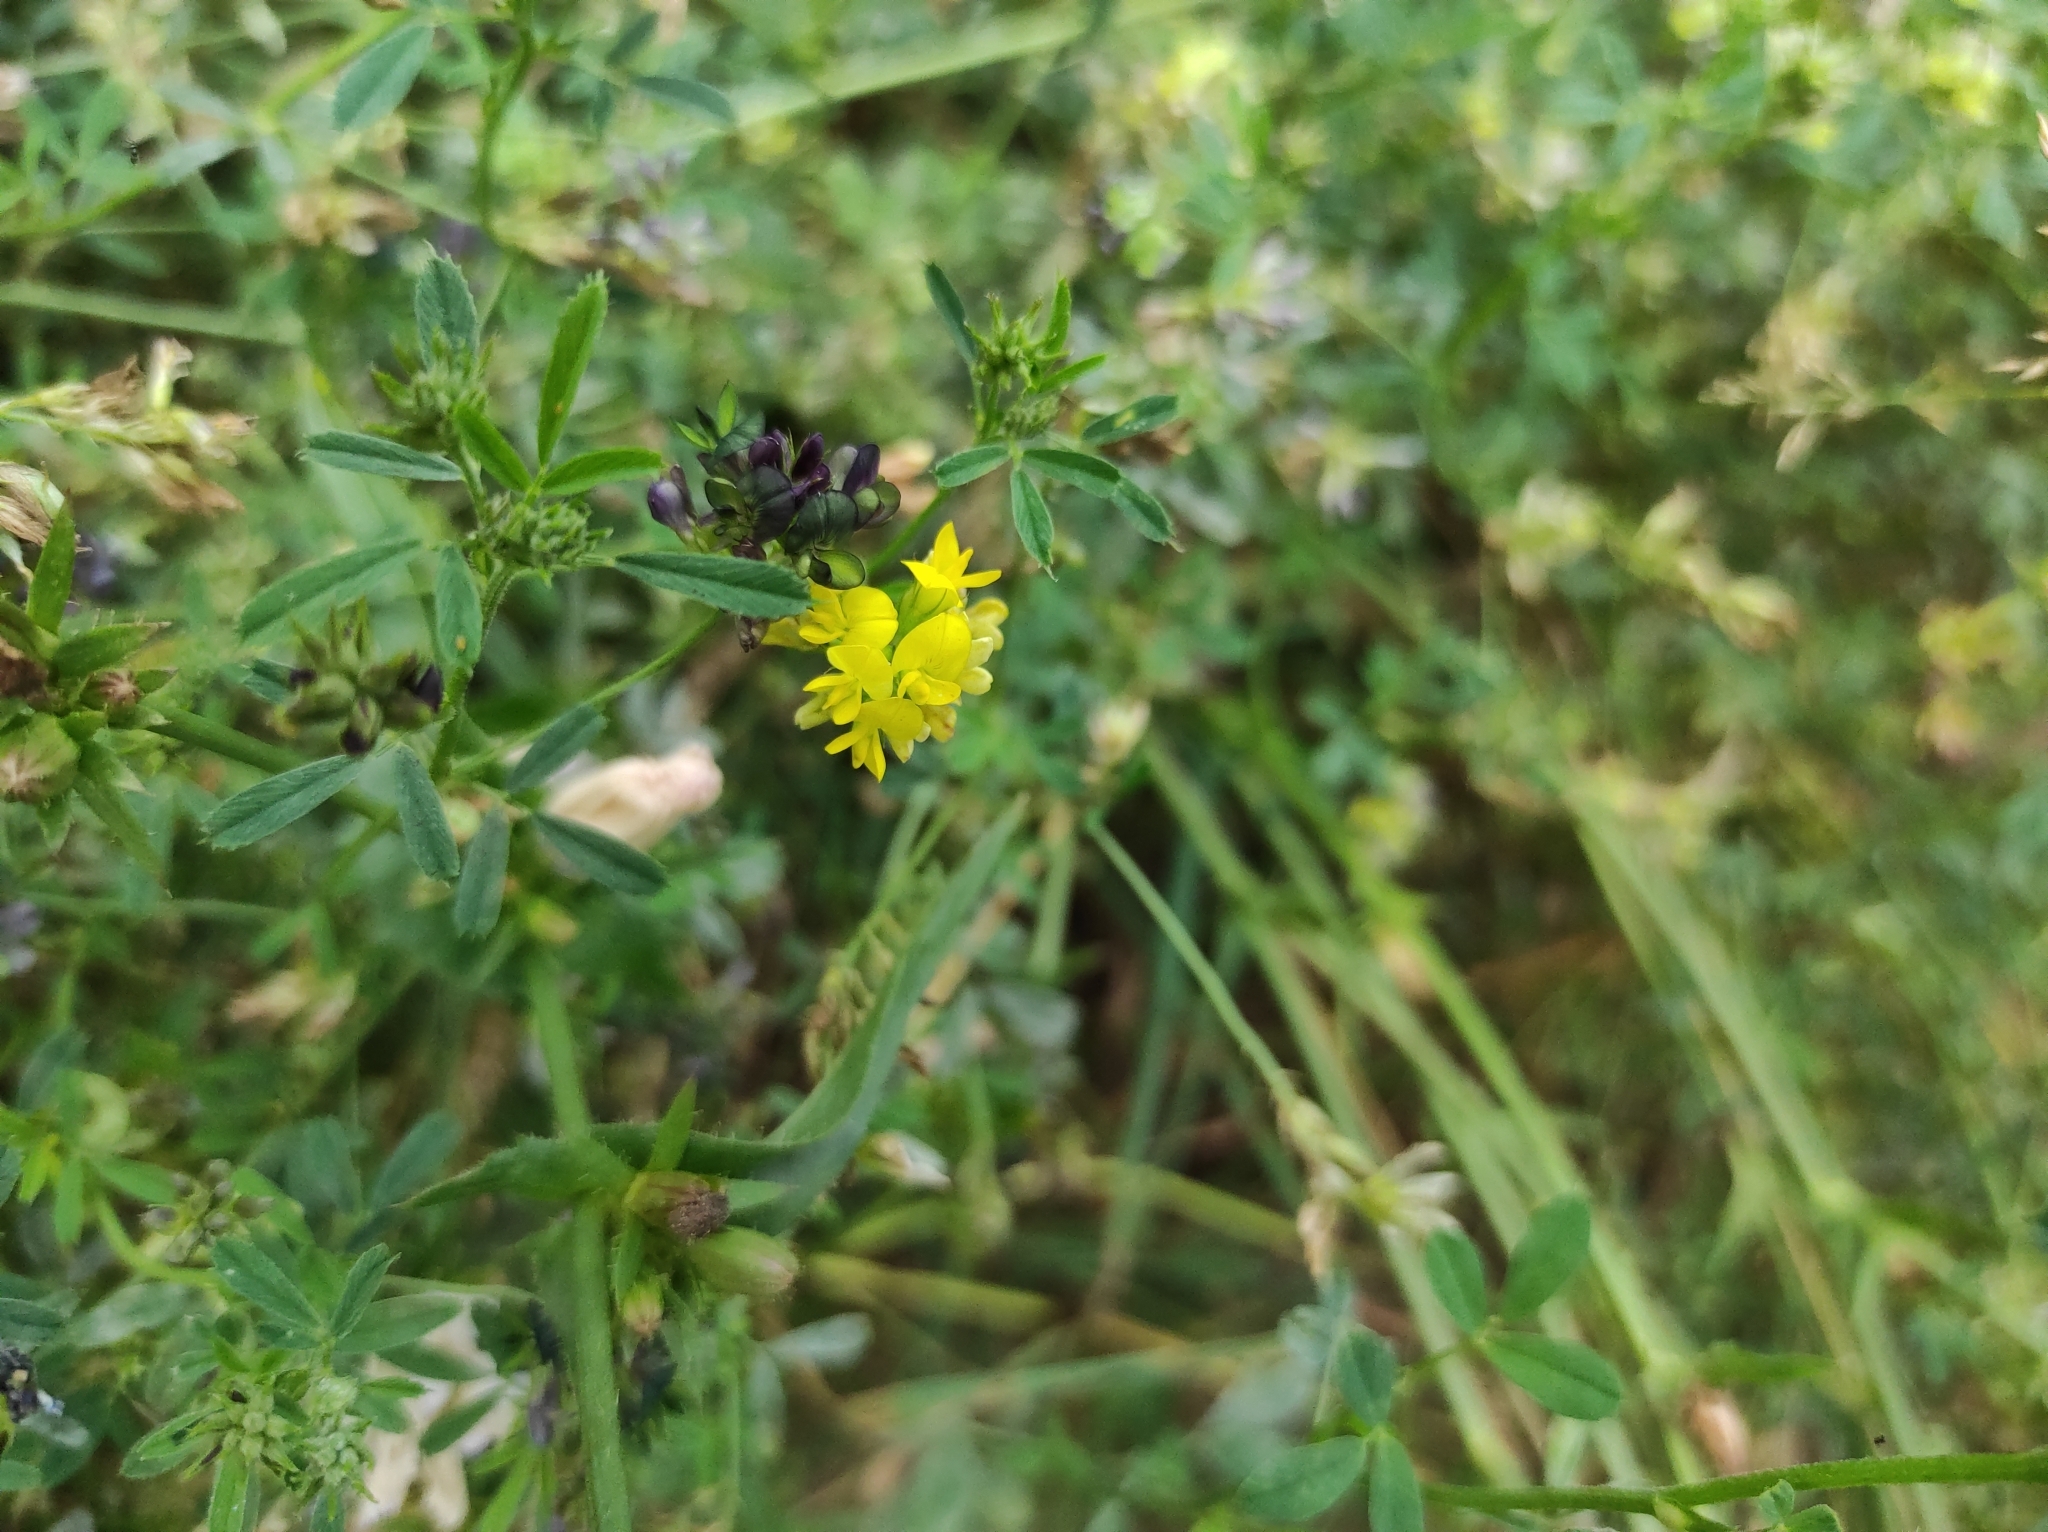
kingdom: Plantae
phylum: Tracheophyta
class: Magnoliopsida
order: Fabales
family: Fabaceae
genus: Medicago
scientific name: Medicago varia
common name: Sand lucerne
